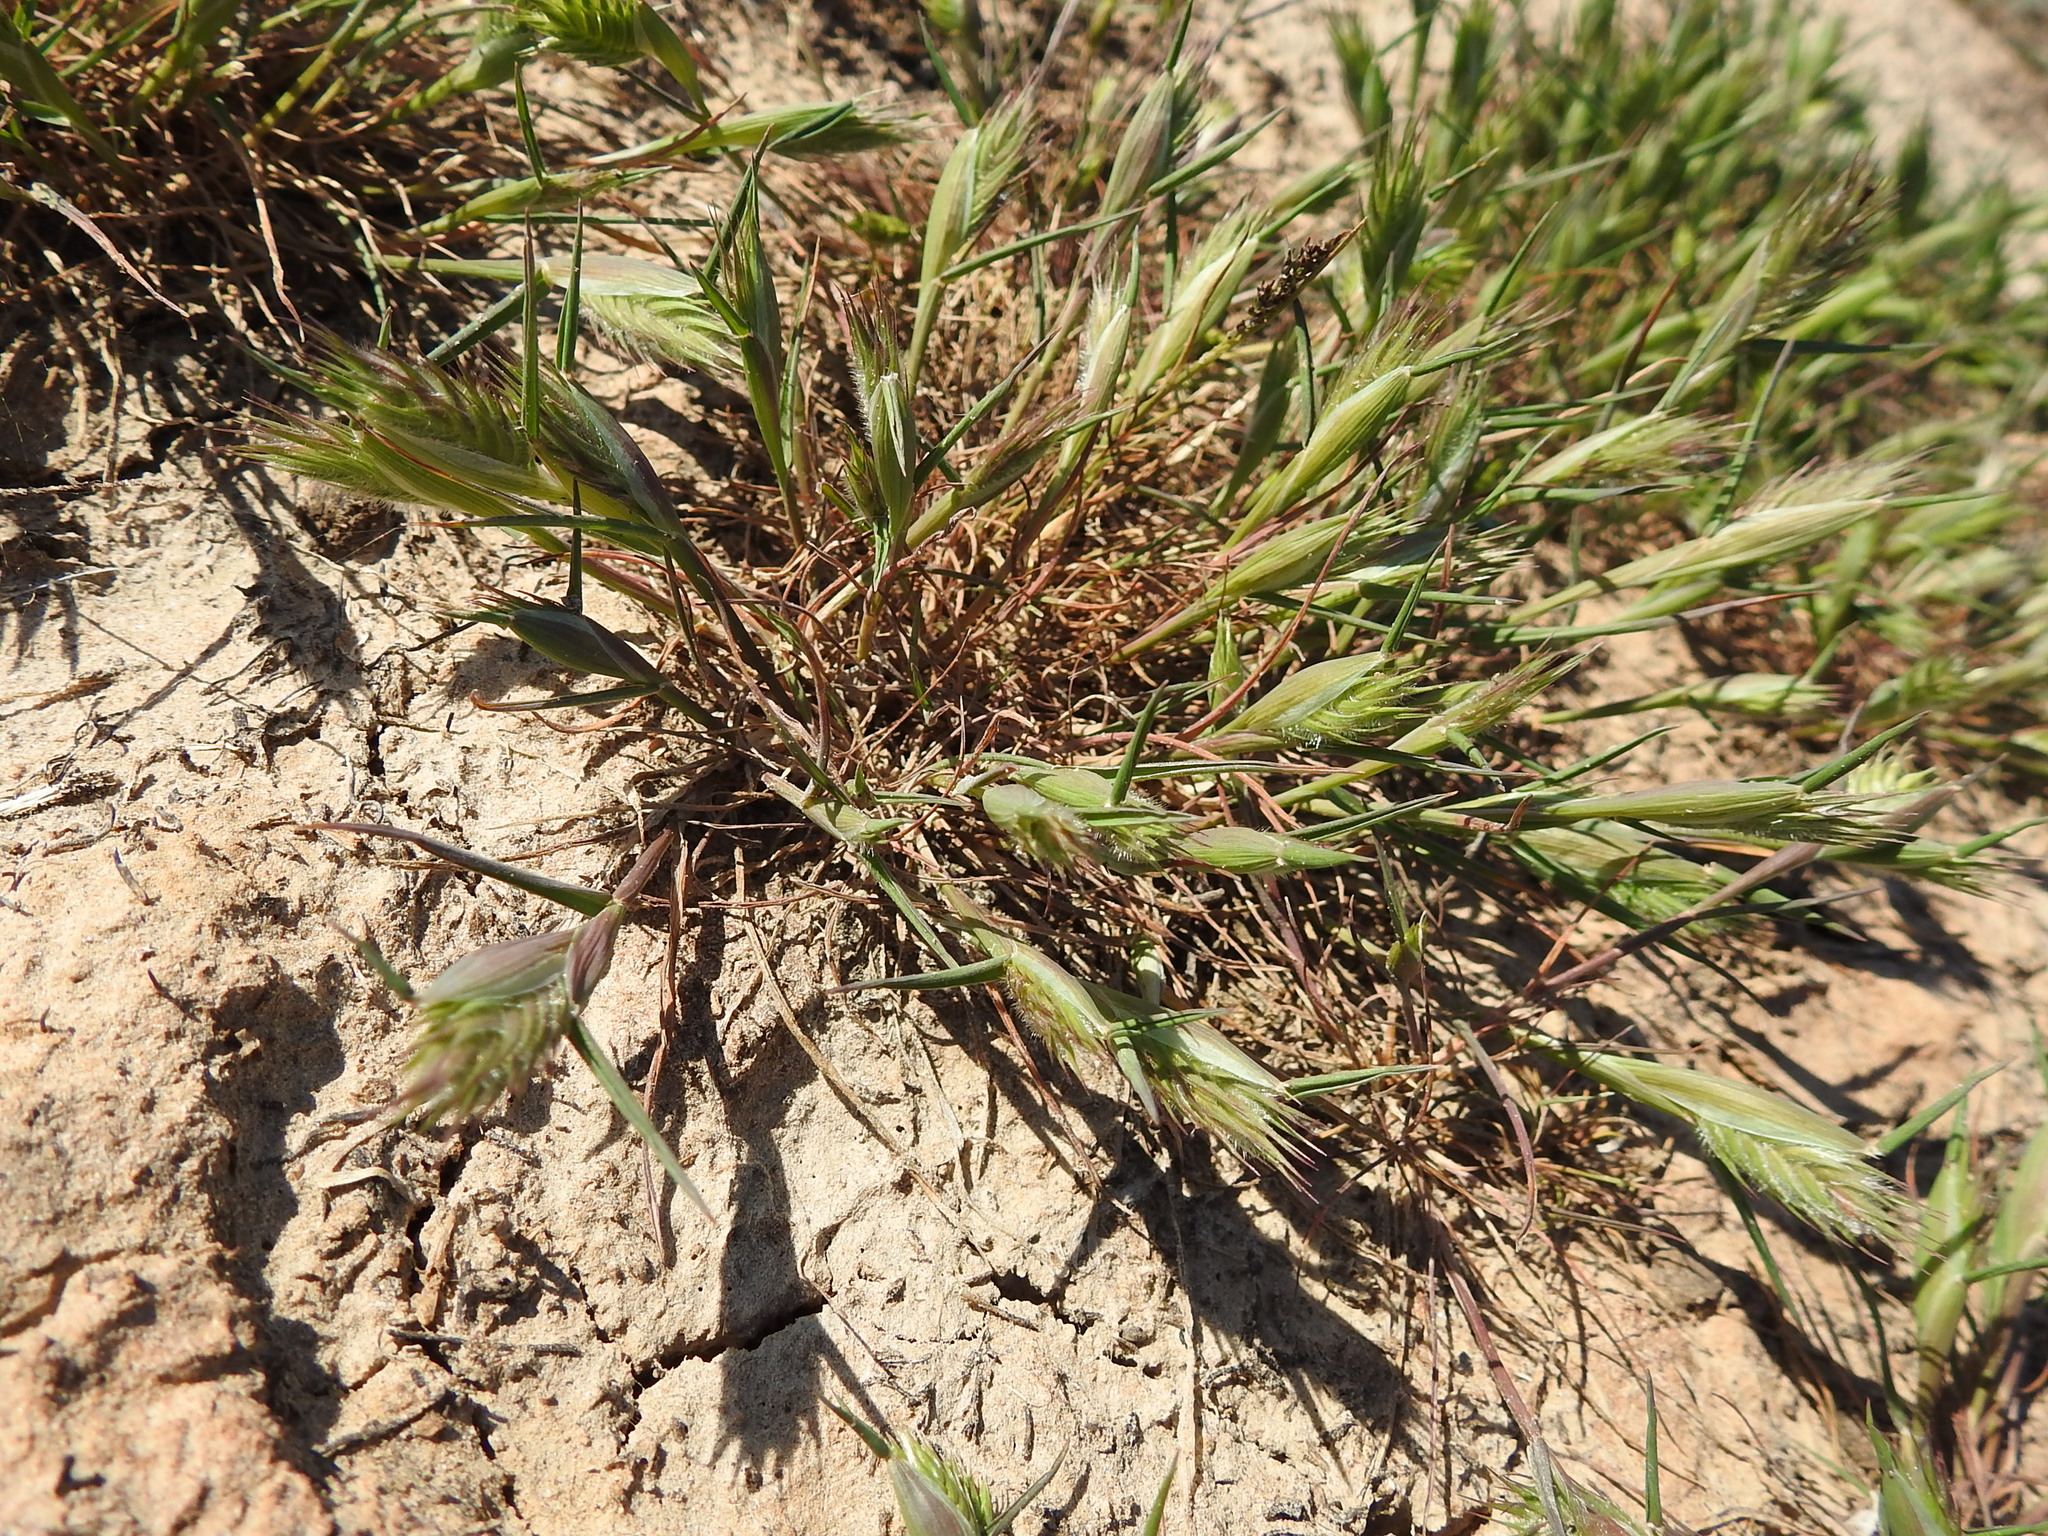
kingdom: Plantae
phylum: Tracheophyta
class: Liliopsida
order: Poales
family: Poaceae
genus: Eremopyrum
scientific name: Eremopyrum triticeum
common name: Annual wheatgrass
